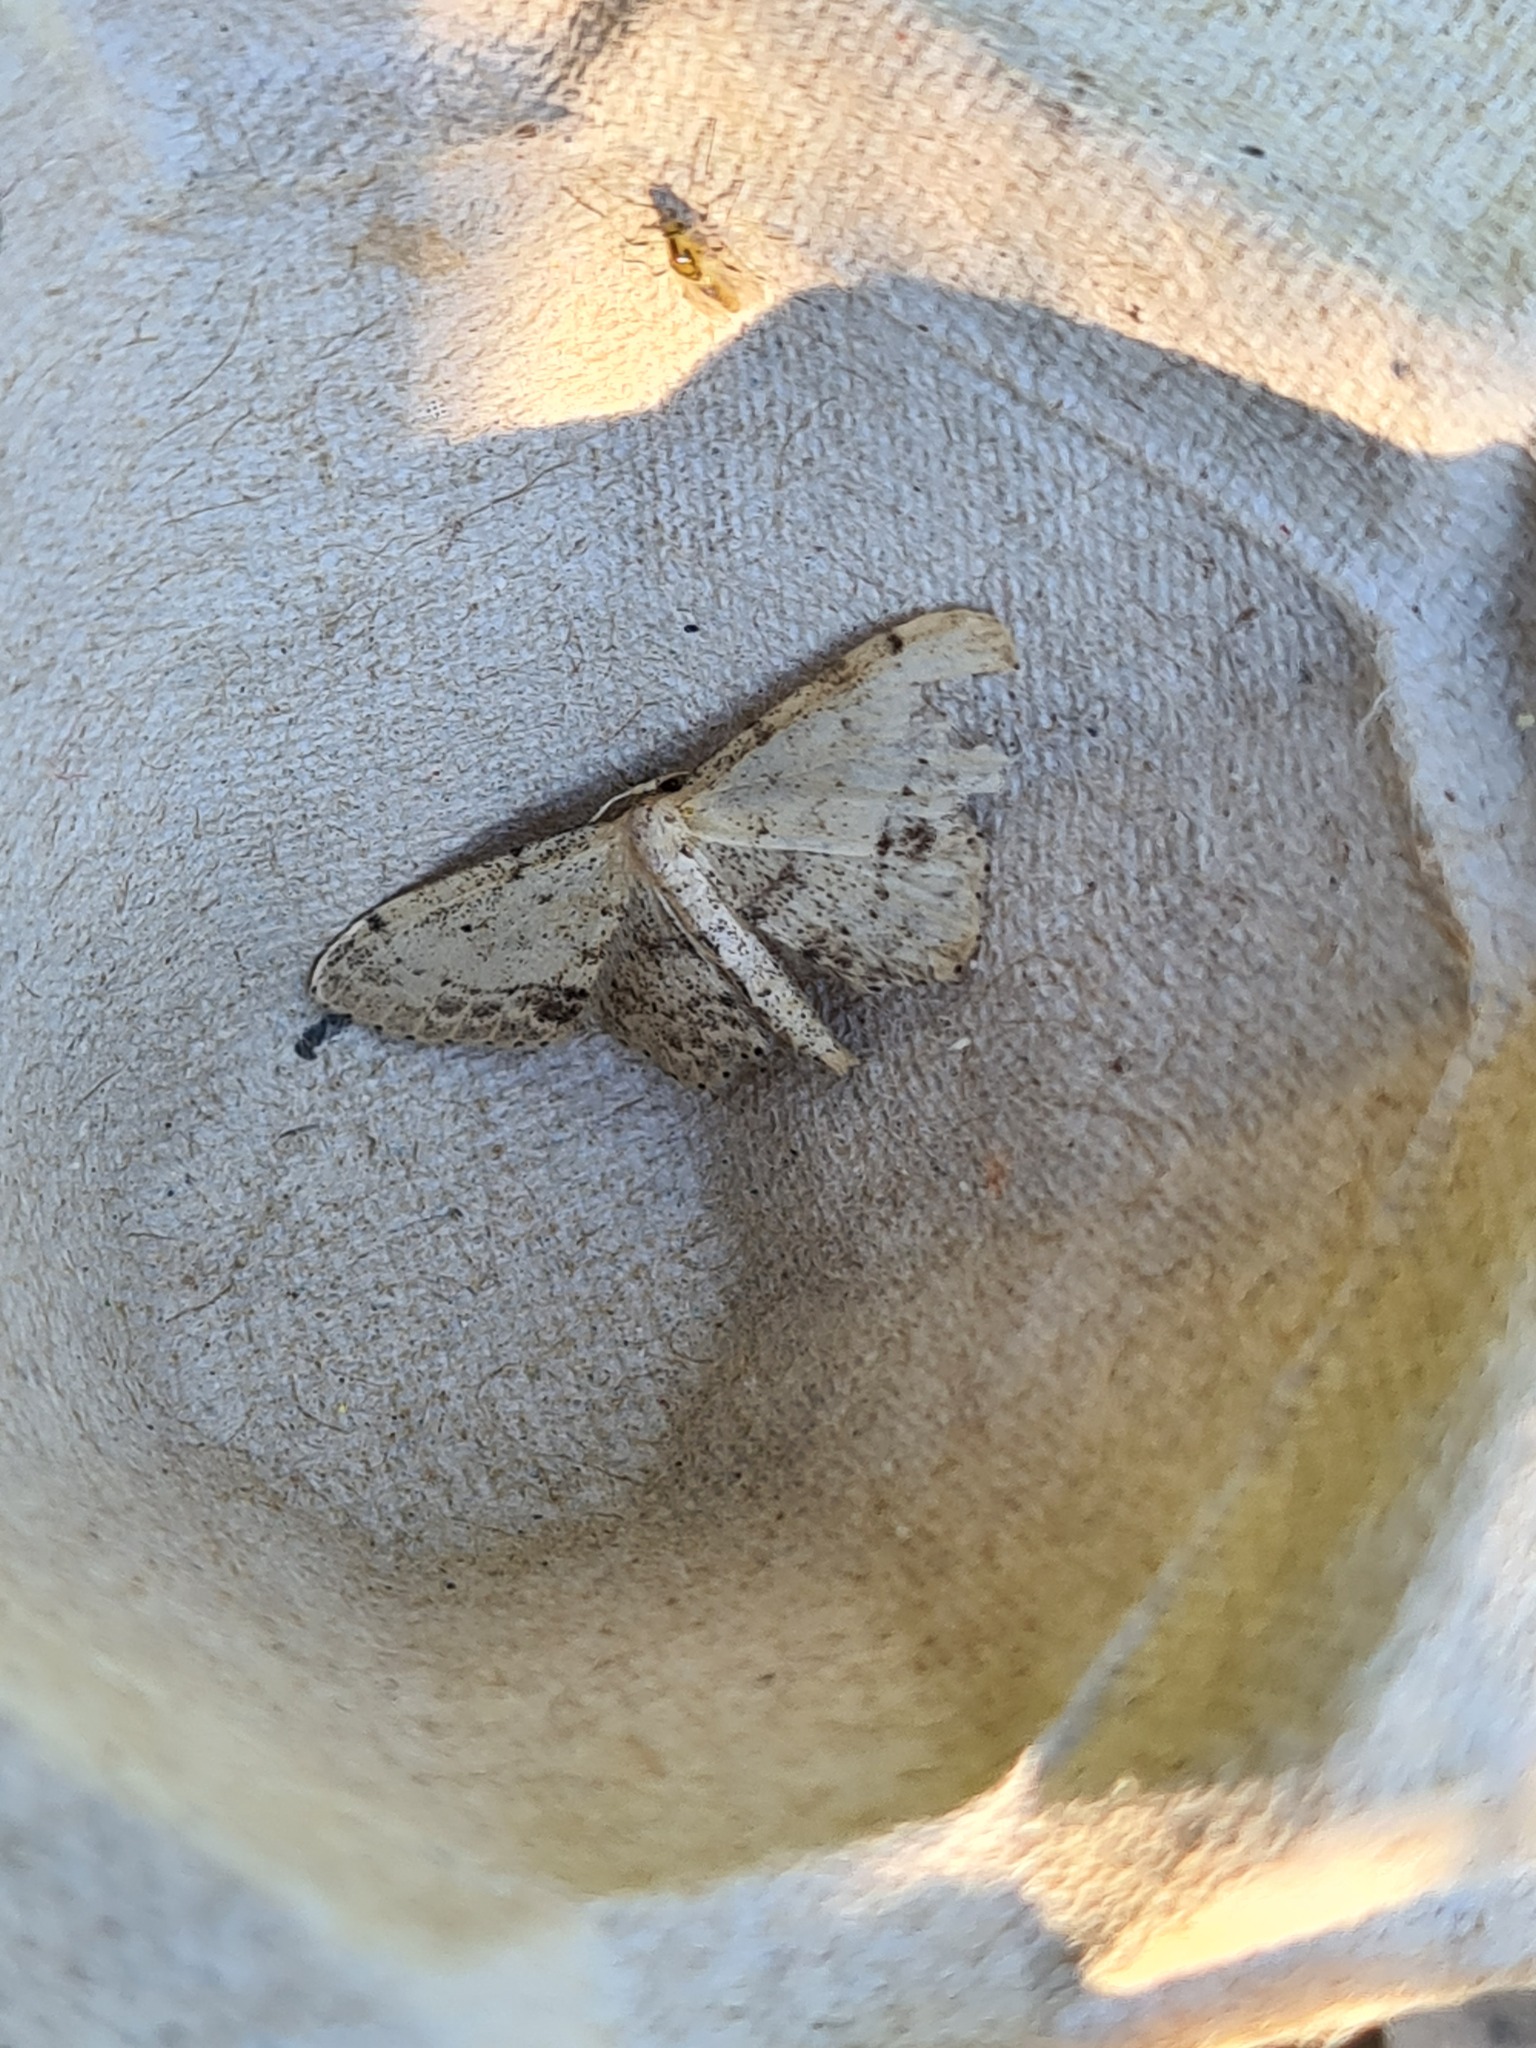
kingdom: Animalia
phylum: Arthropoda
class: Insecta
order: Lepidoptera
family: Geometridae
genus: Idaea
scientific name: Idaea dimidiata
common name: Single-dotted wave
